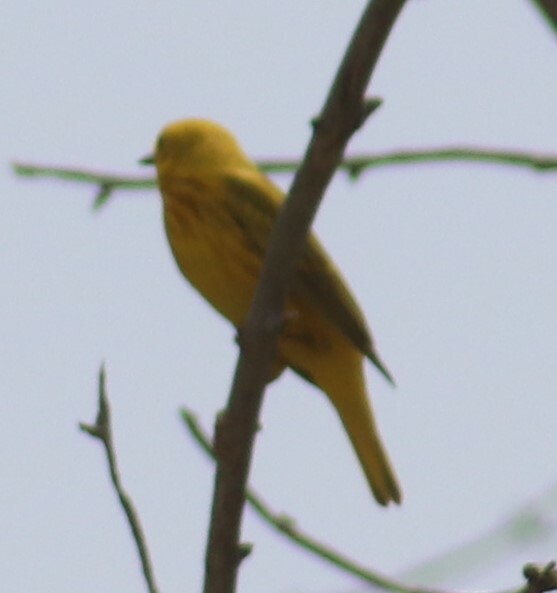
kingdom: Animalia
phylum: Chordata
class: Aves
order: Passeriformes
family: Parulidae
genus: Setophaga
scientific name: Setophaga petechia
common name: Yellow warbler
